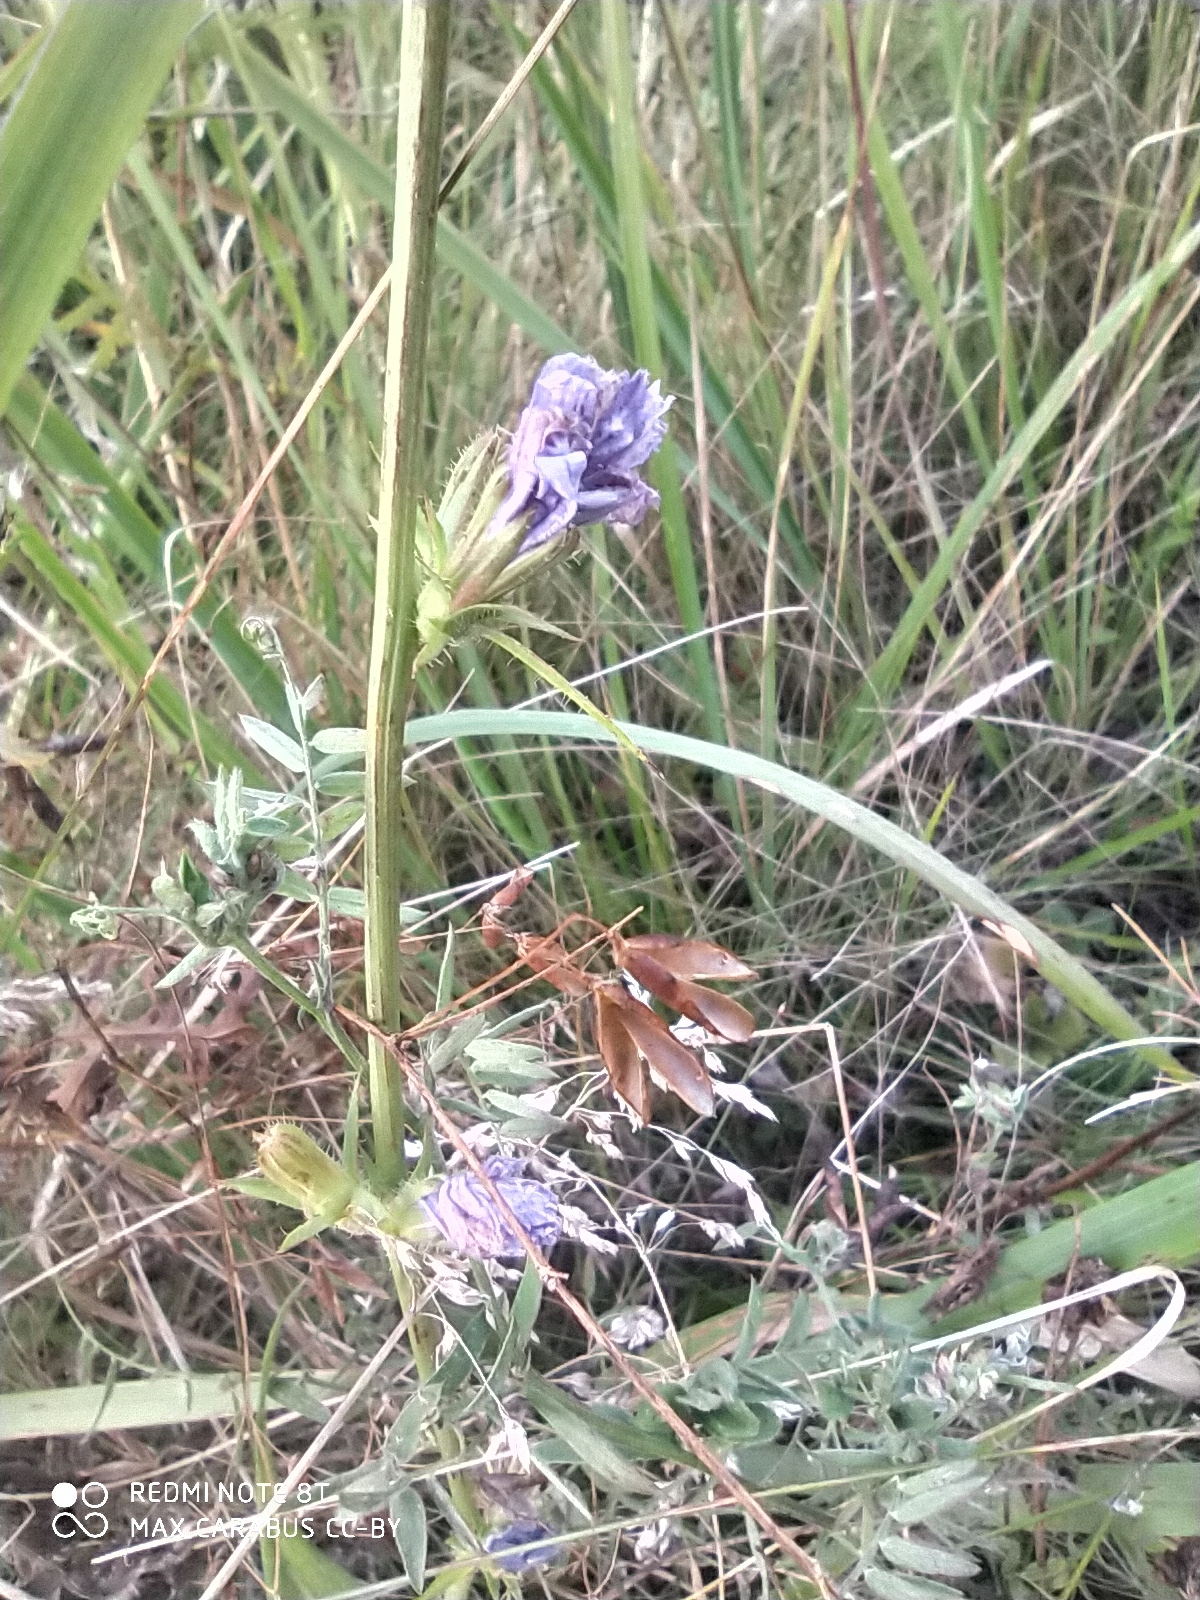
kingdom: Plantae
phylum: Tracheophyta
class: Magnoliopsida
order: Asterales
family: Asteraceae
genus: Cichorium
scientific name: Cichorium intybus
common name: Chicory
